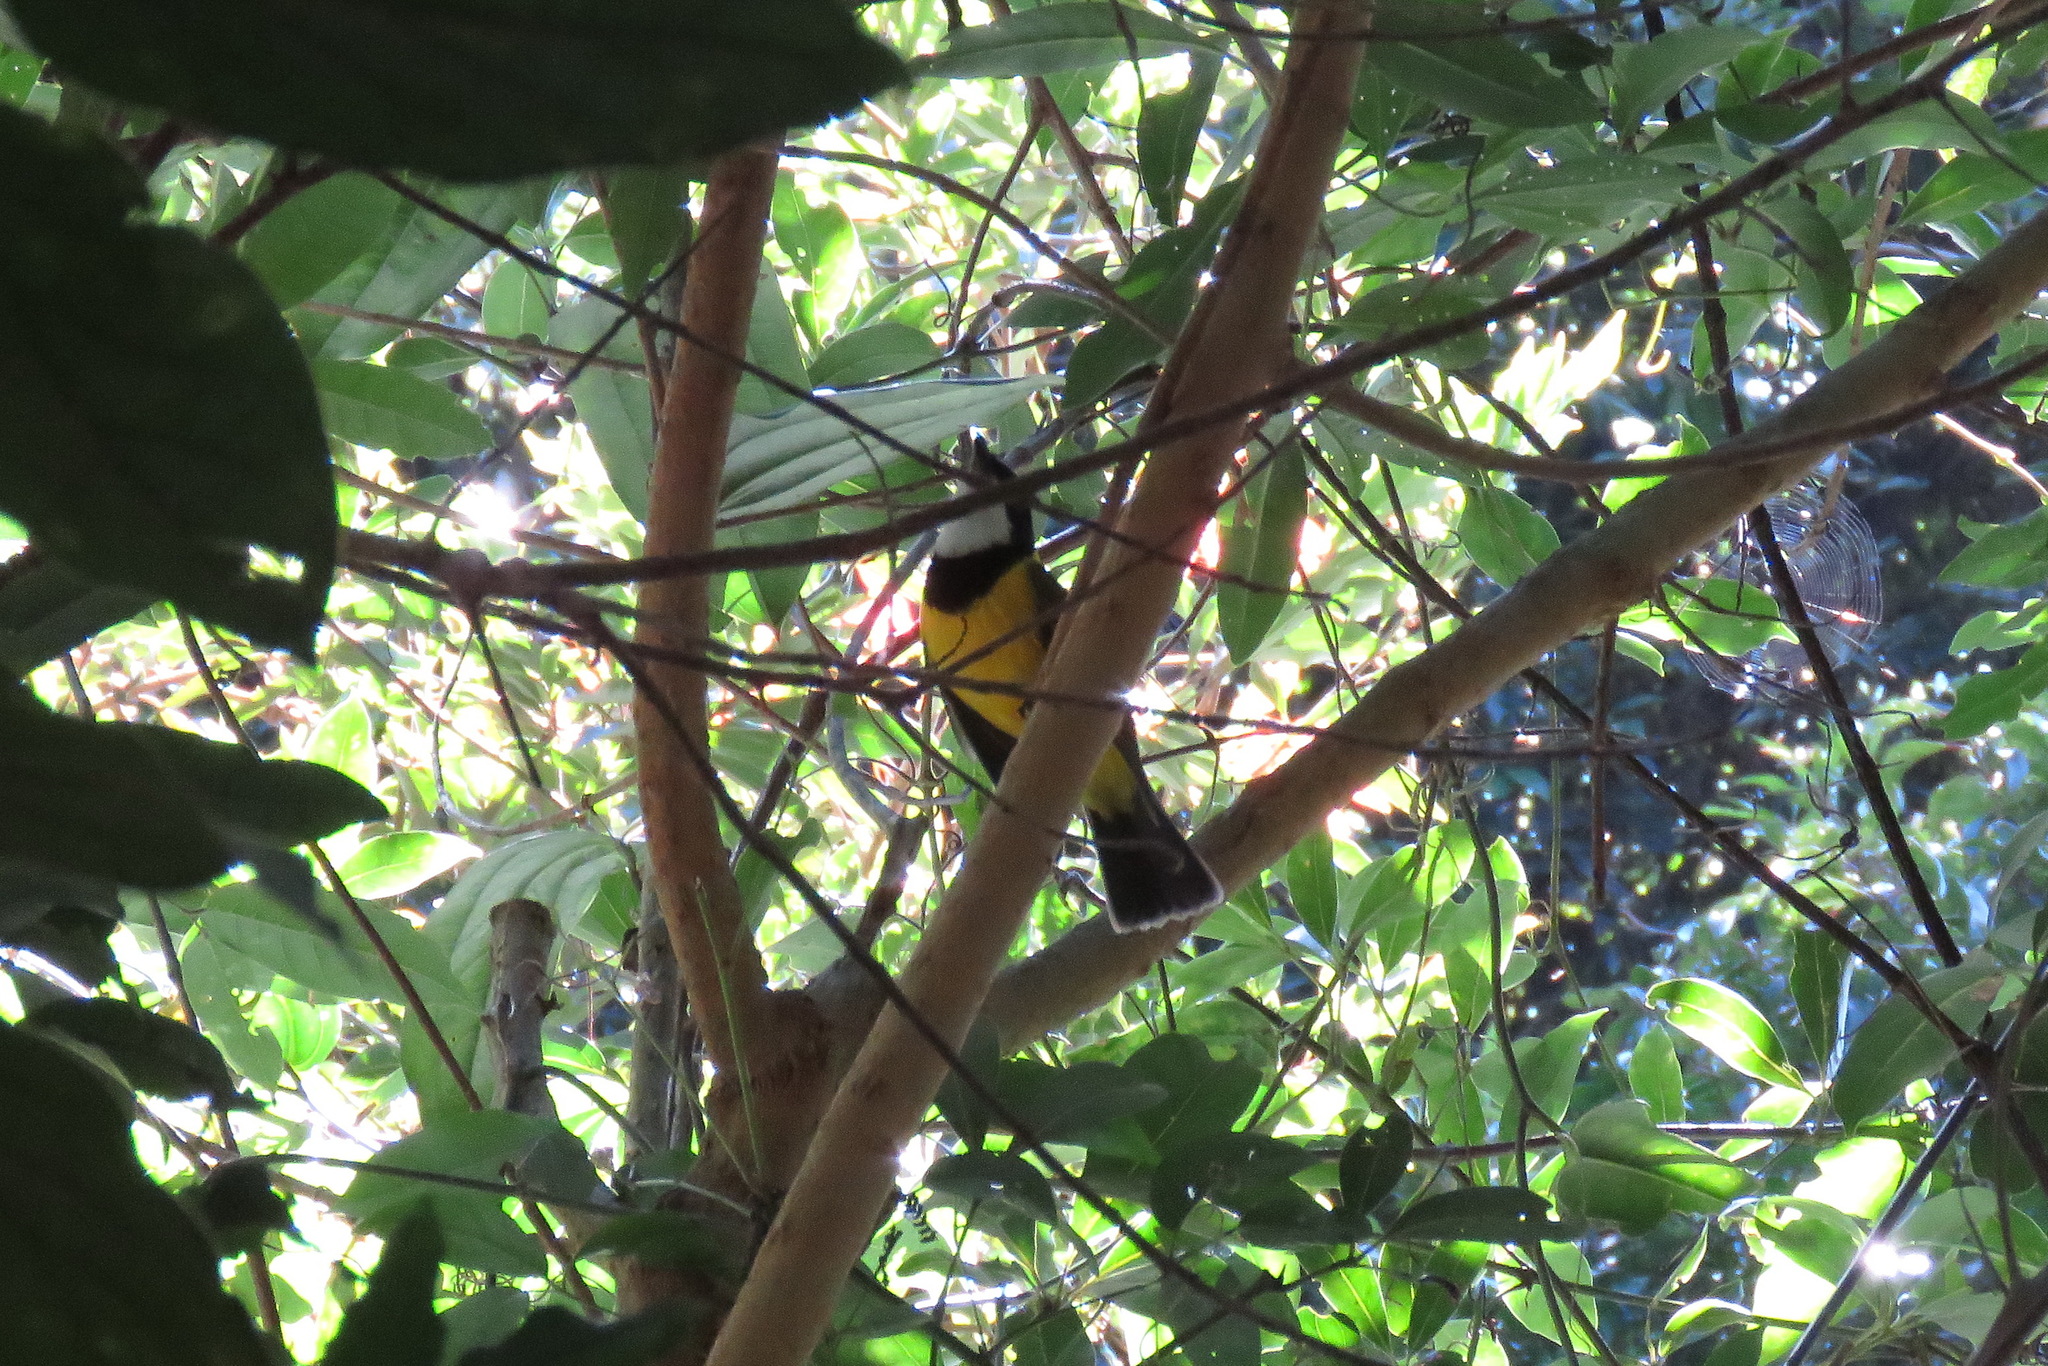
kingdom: Animalia
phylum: Chordata
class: Aves
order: Passeriformes
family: Pachycephalidae
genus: Pachycephala
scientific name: Pachycephala pectoralis
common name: Australian golden whistler
